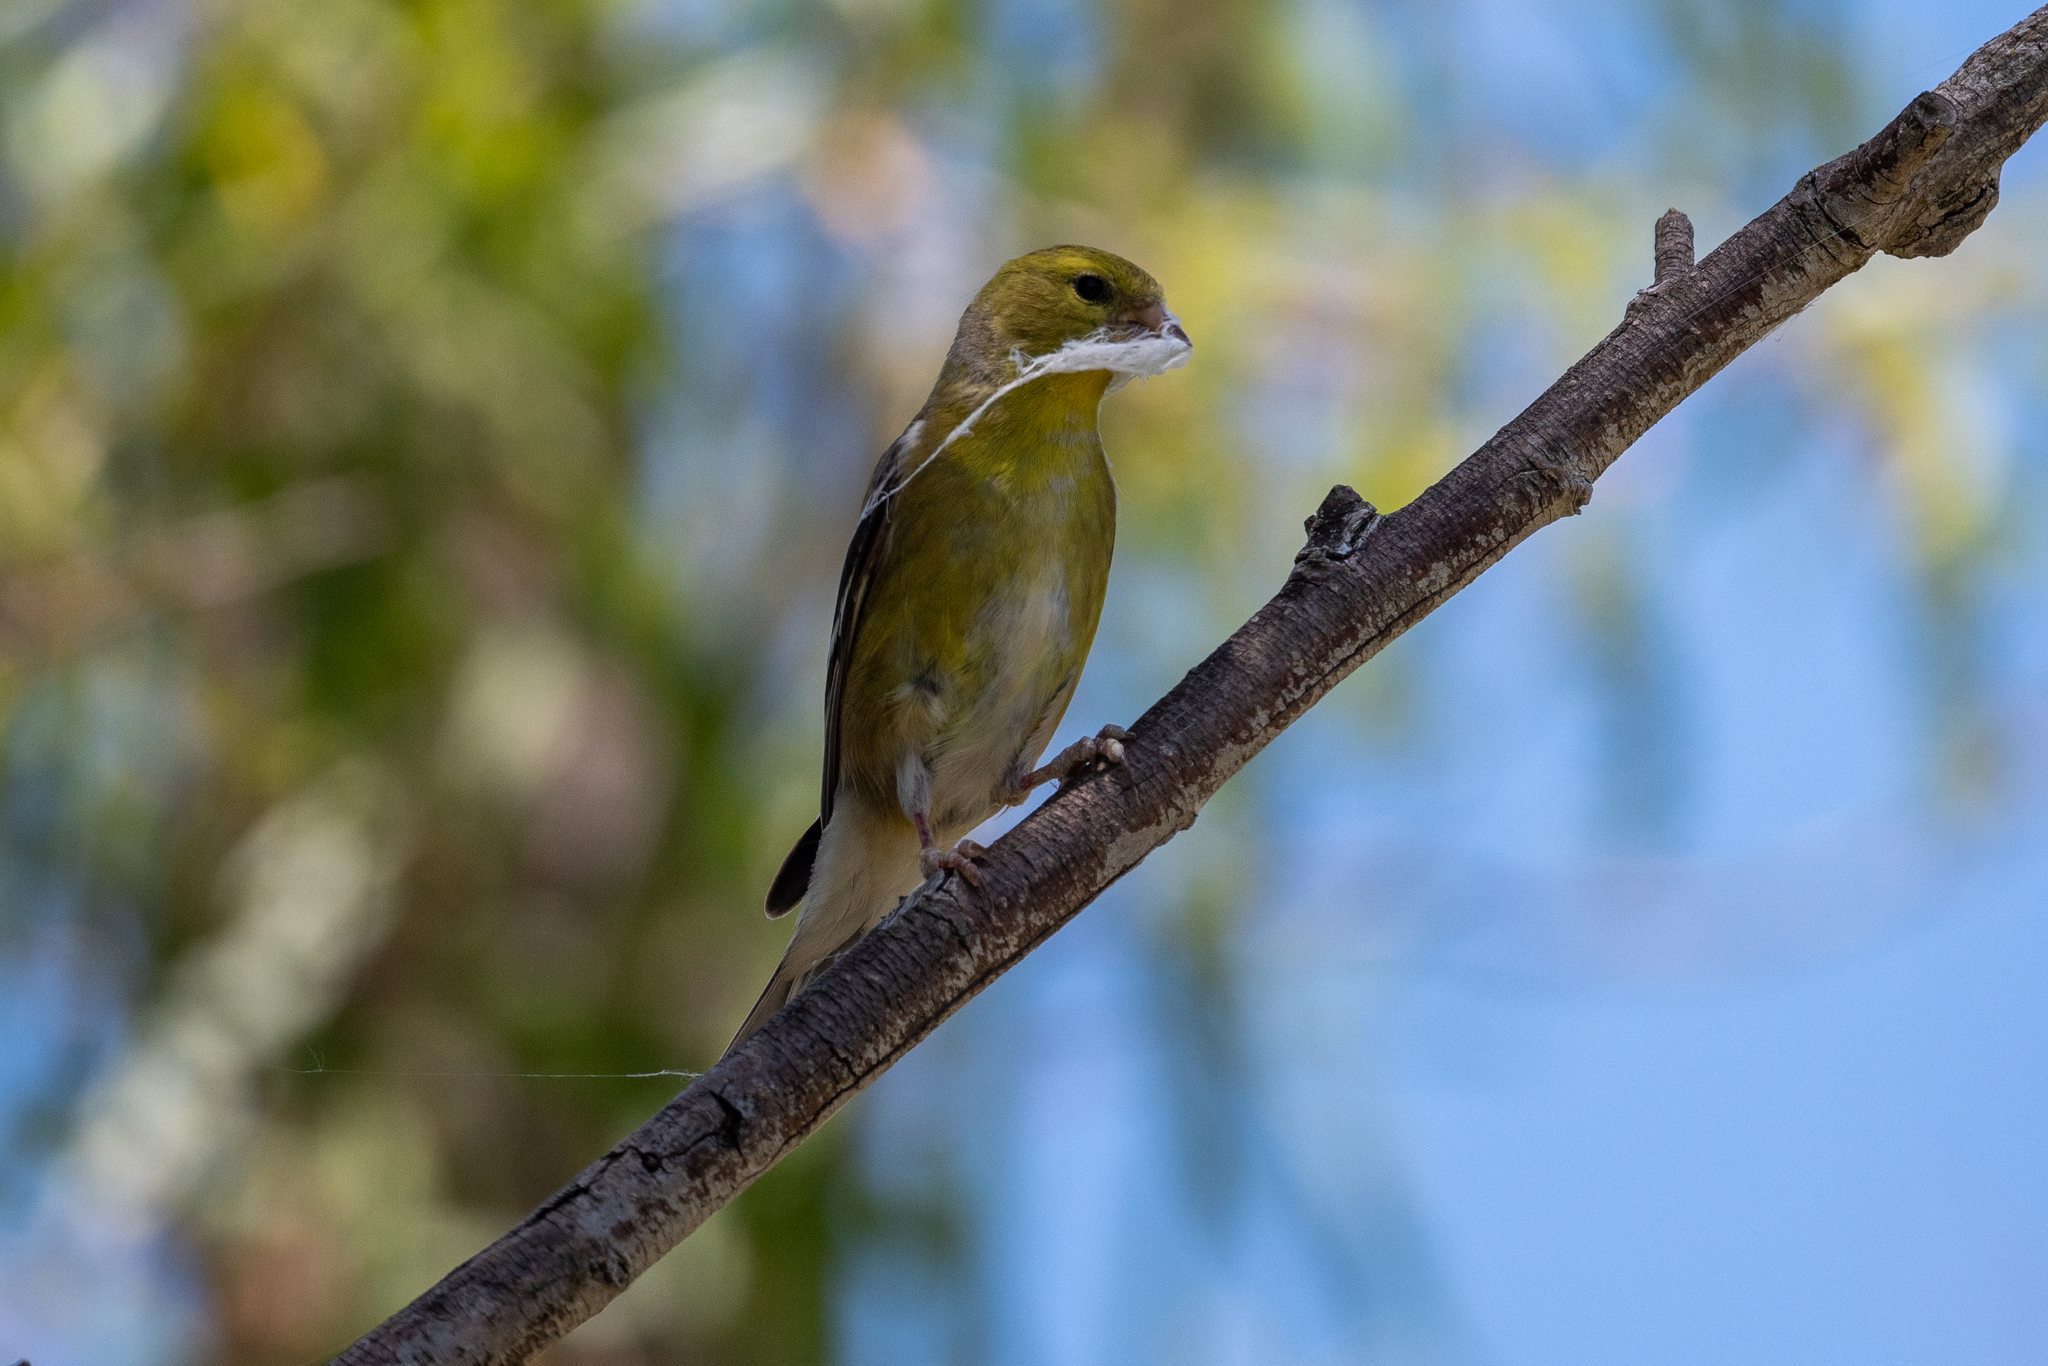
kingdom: Animalia
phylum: Chordata
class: Aves
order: Passeriformes
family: Fringillidae
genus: Spinus
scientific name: Spinus tristis
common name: American goldfinch
